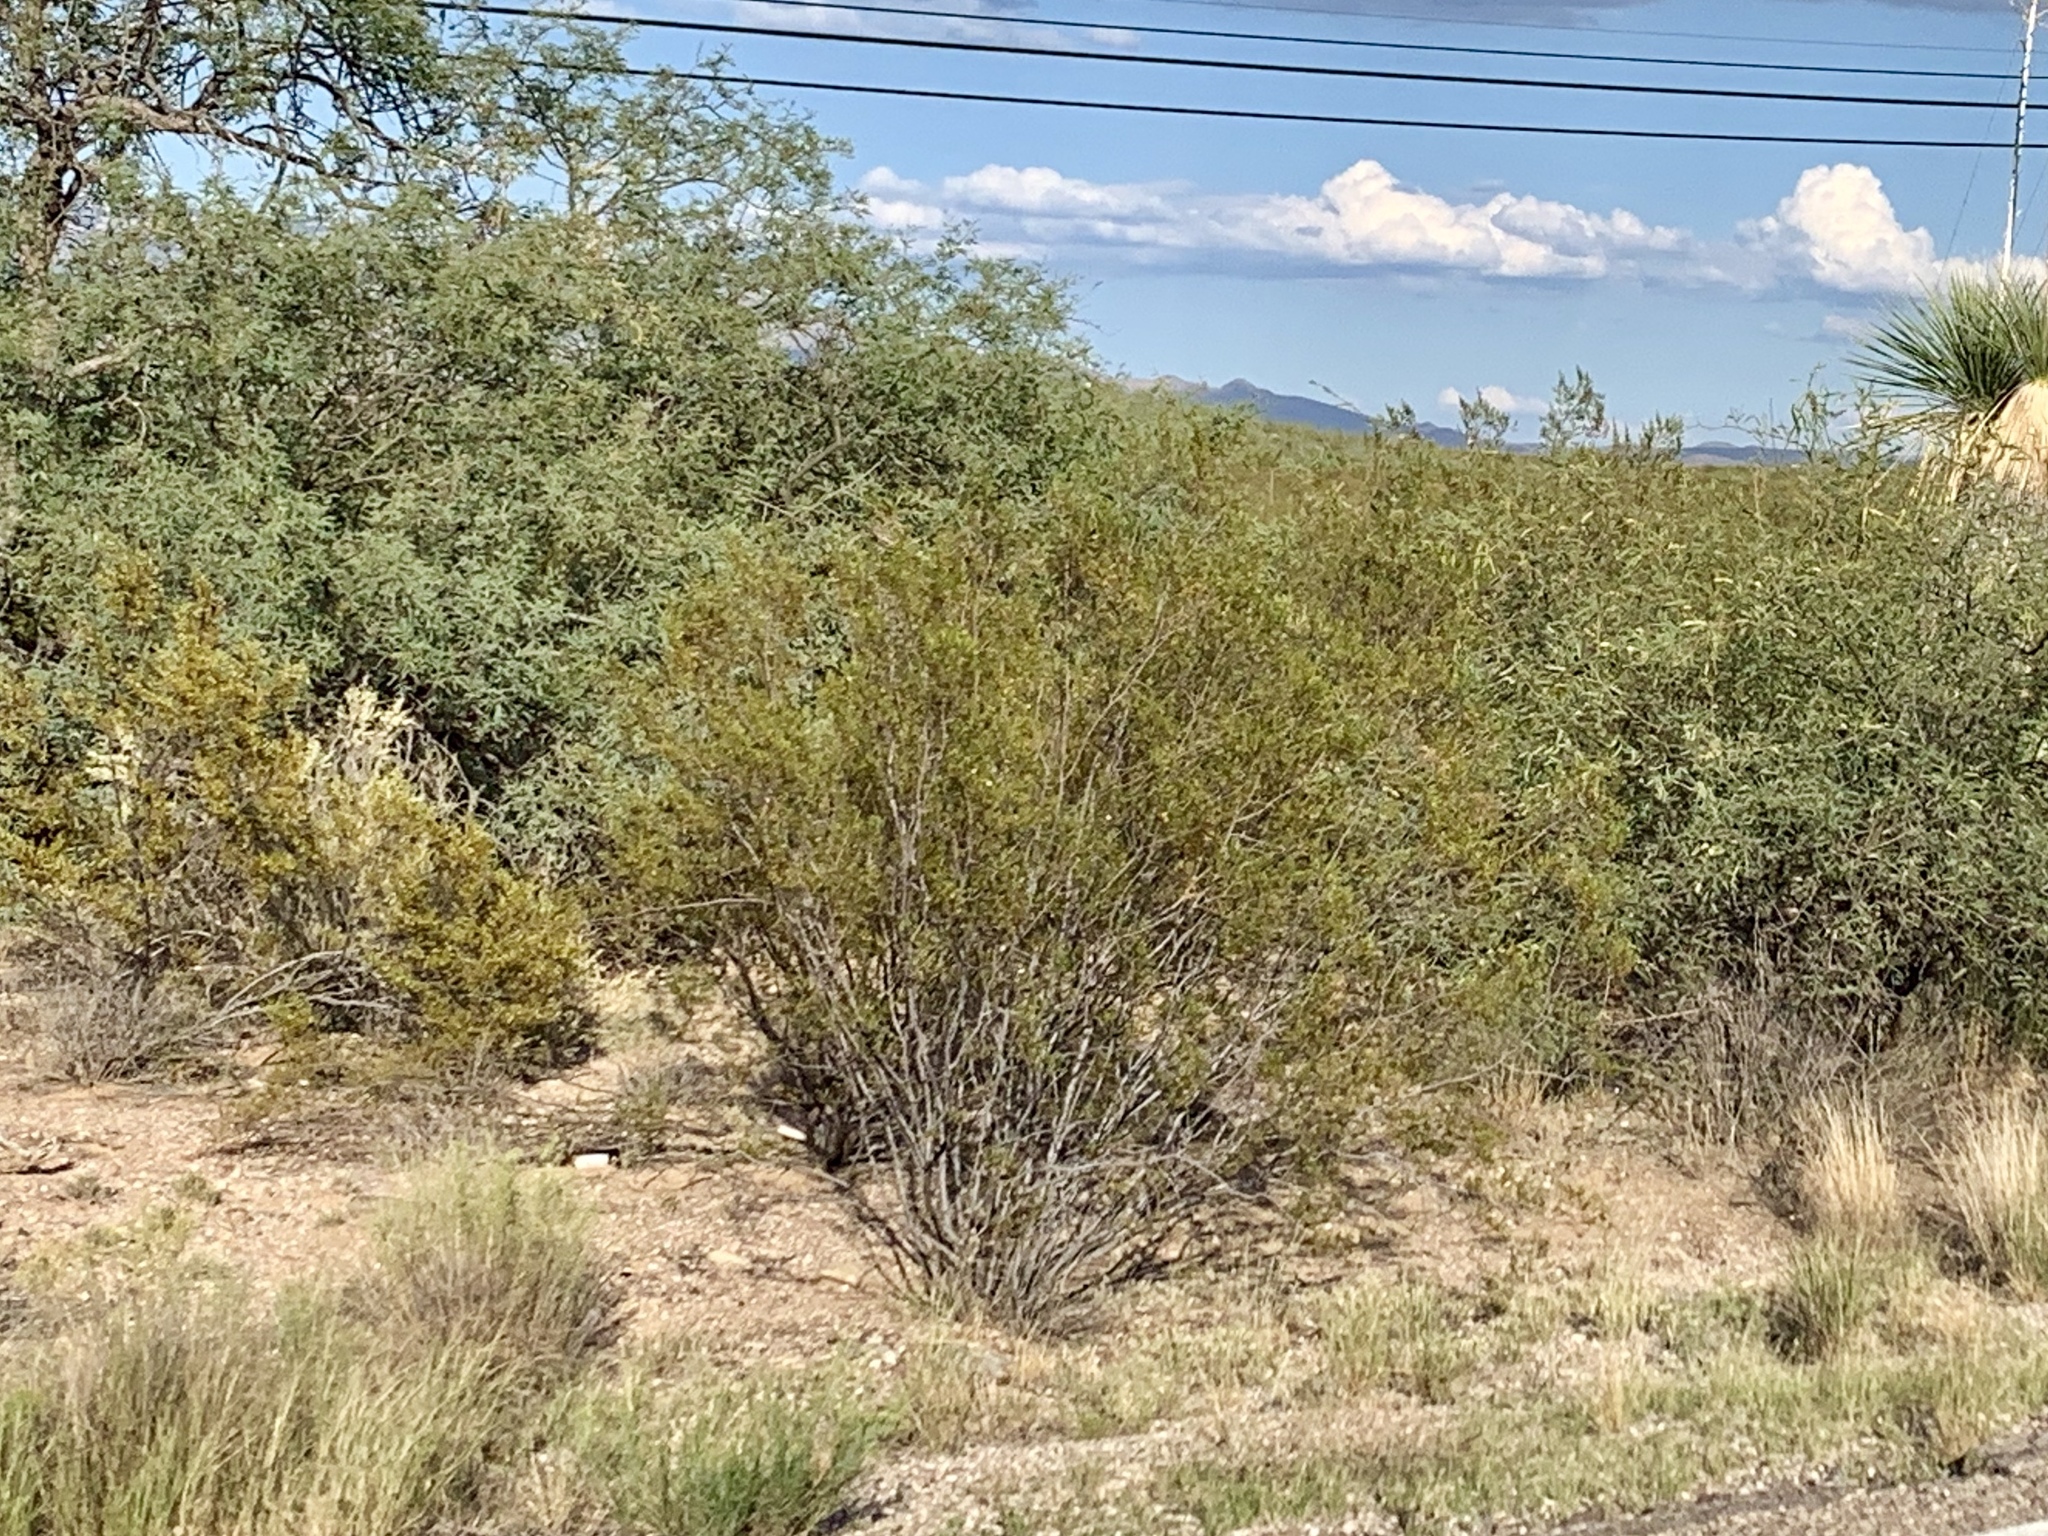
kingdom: Plantae
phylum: Tracheophyta
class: Magnoliopsida
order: Zygophyllales
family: Zygophyllaceae
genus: Larrea
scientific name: Larrea tridentata
